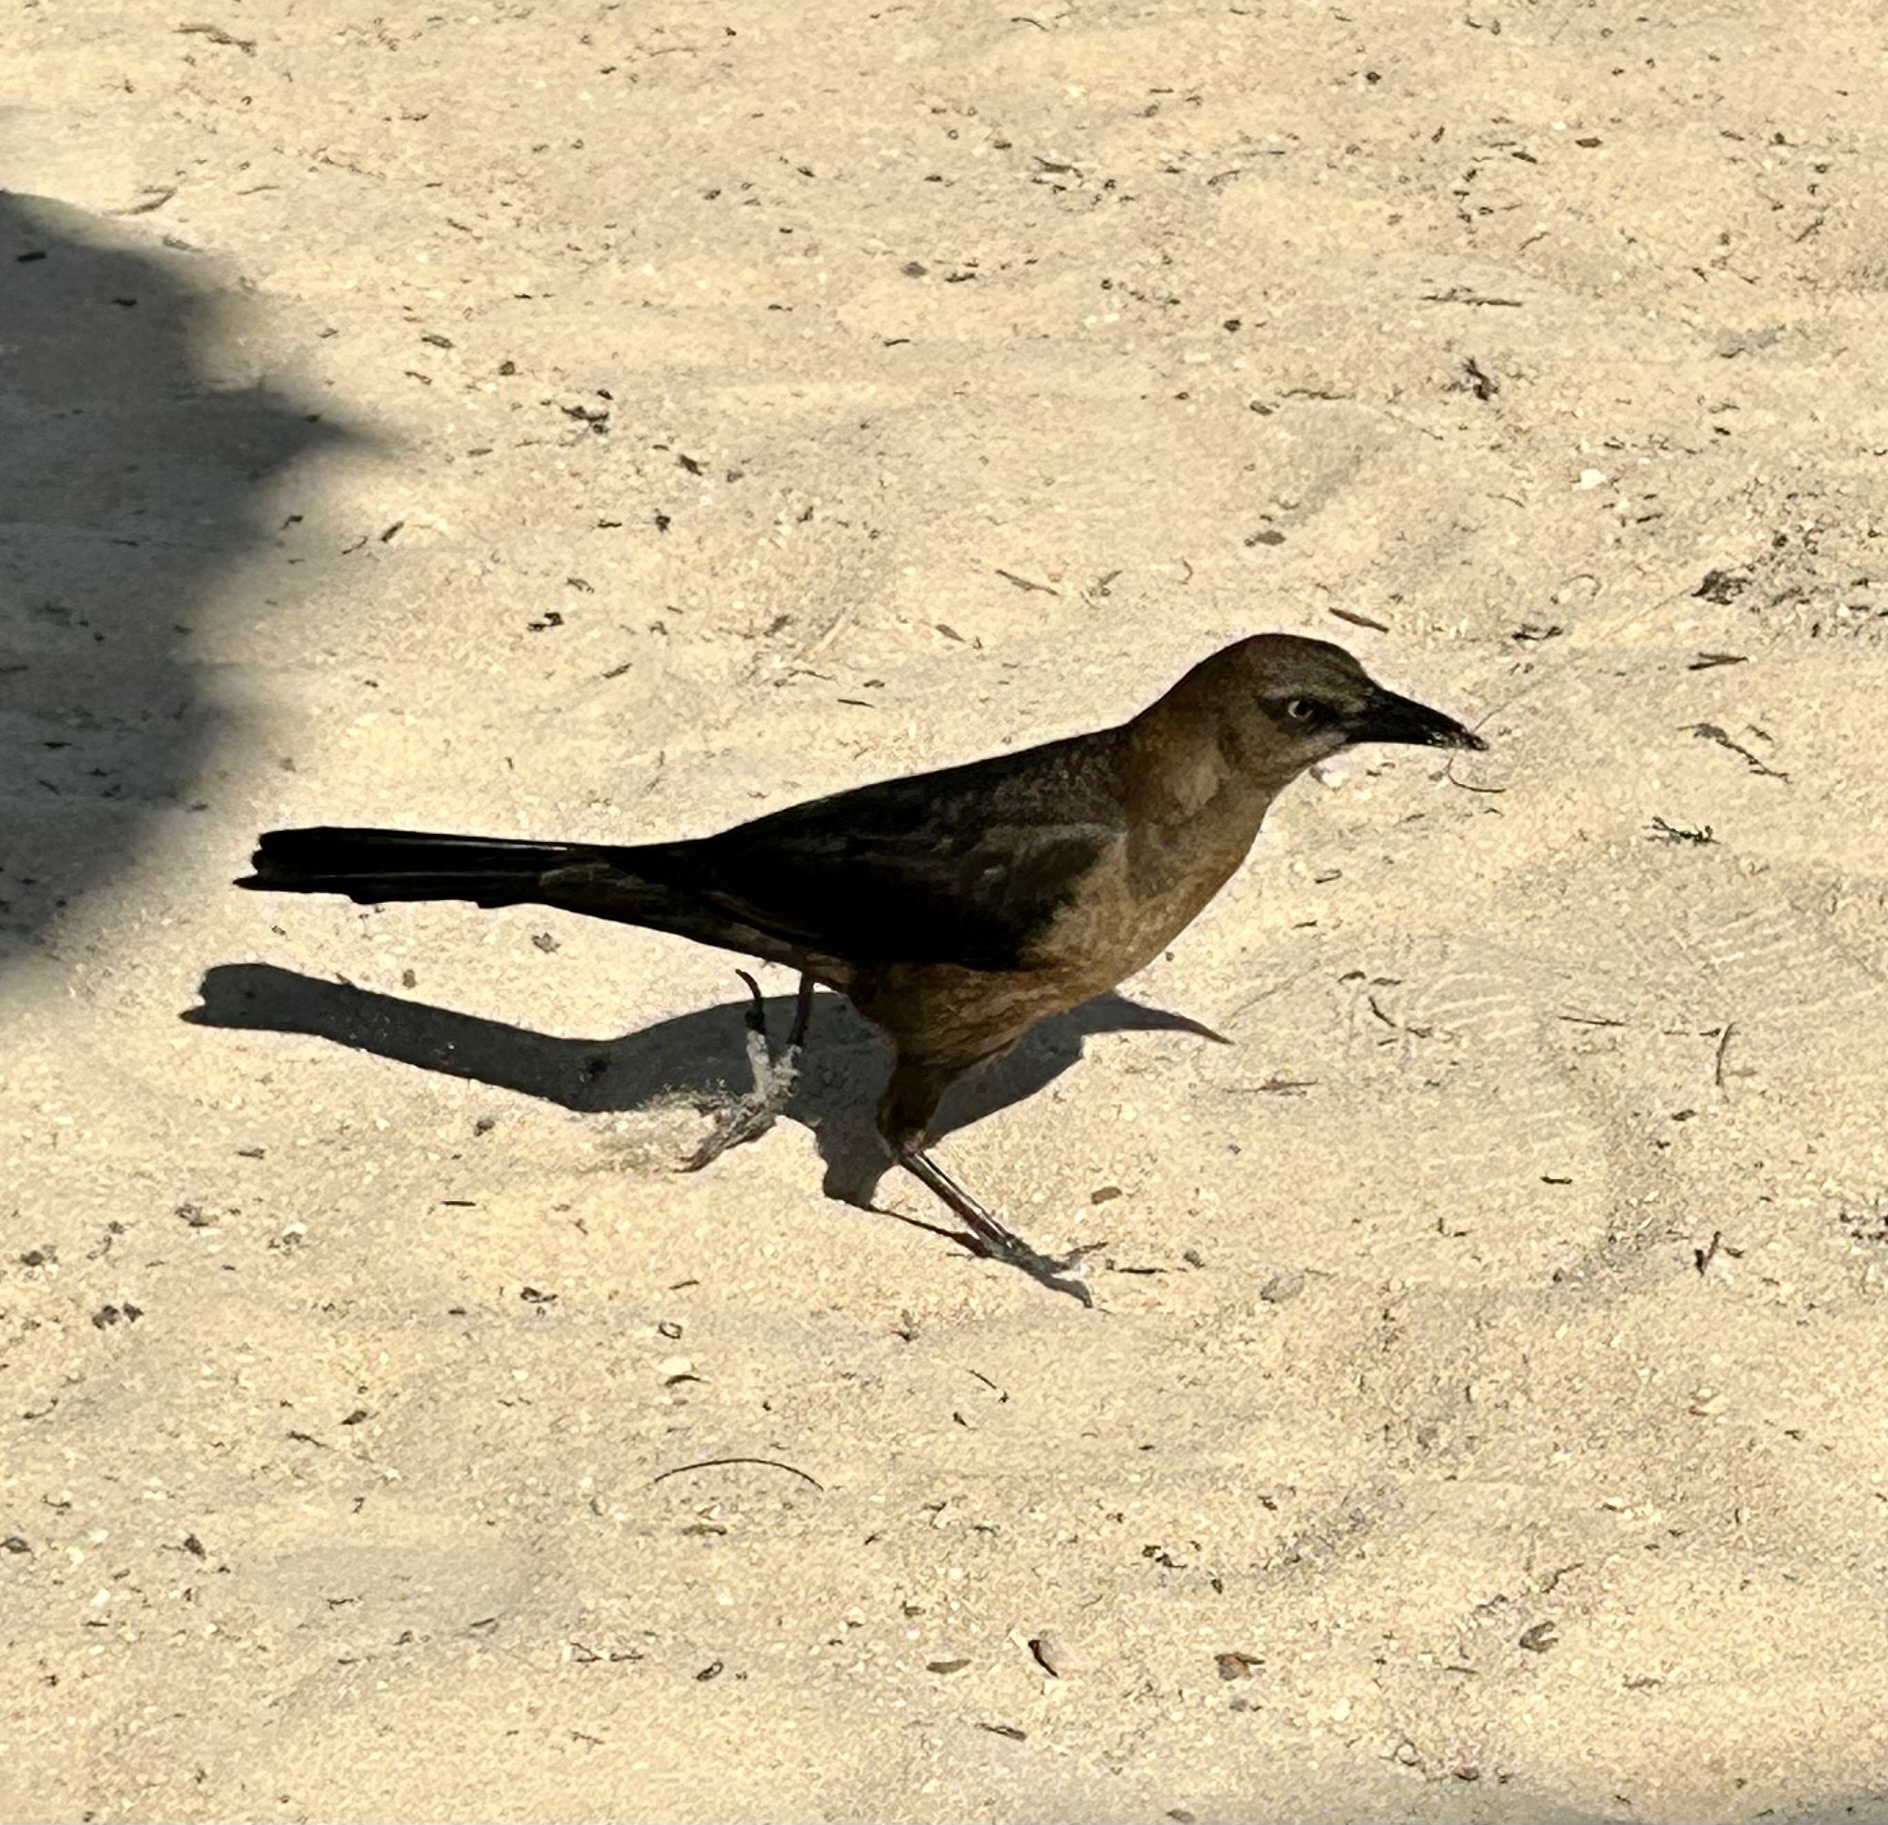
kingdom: Animalia
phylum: Chordata
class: Aves
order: Passeriformes
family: Icteridae
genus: Quiscalus
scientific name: Quiscalus mexicanus
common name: Great-tailed grackle
